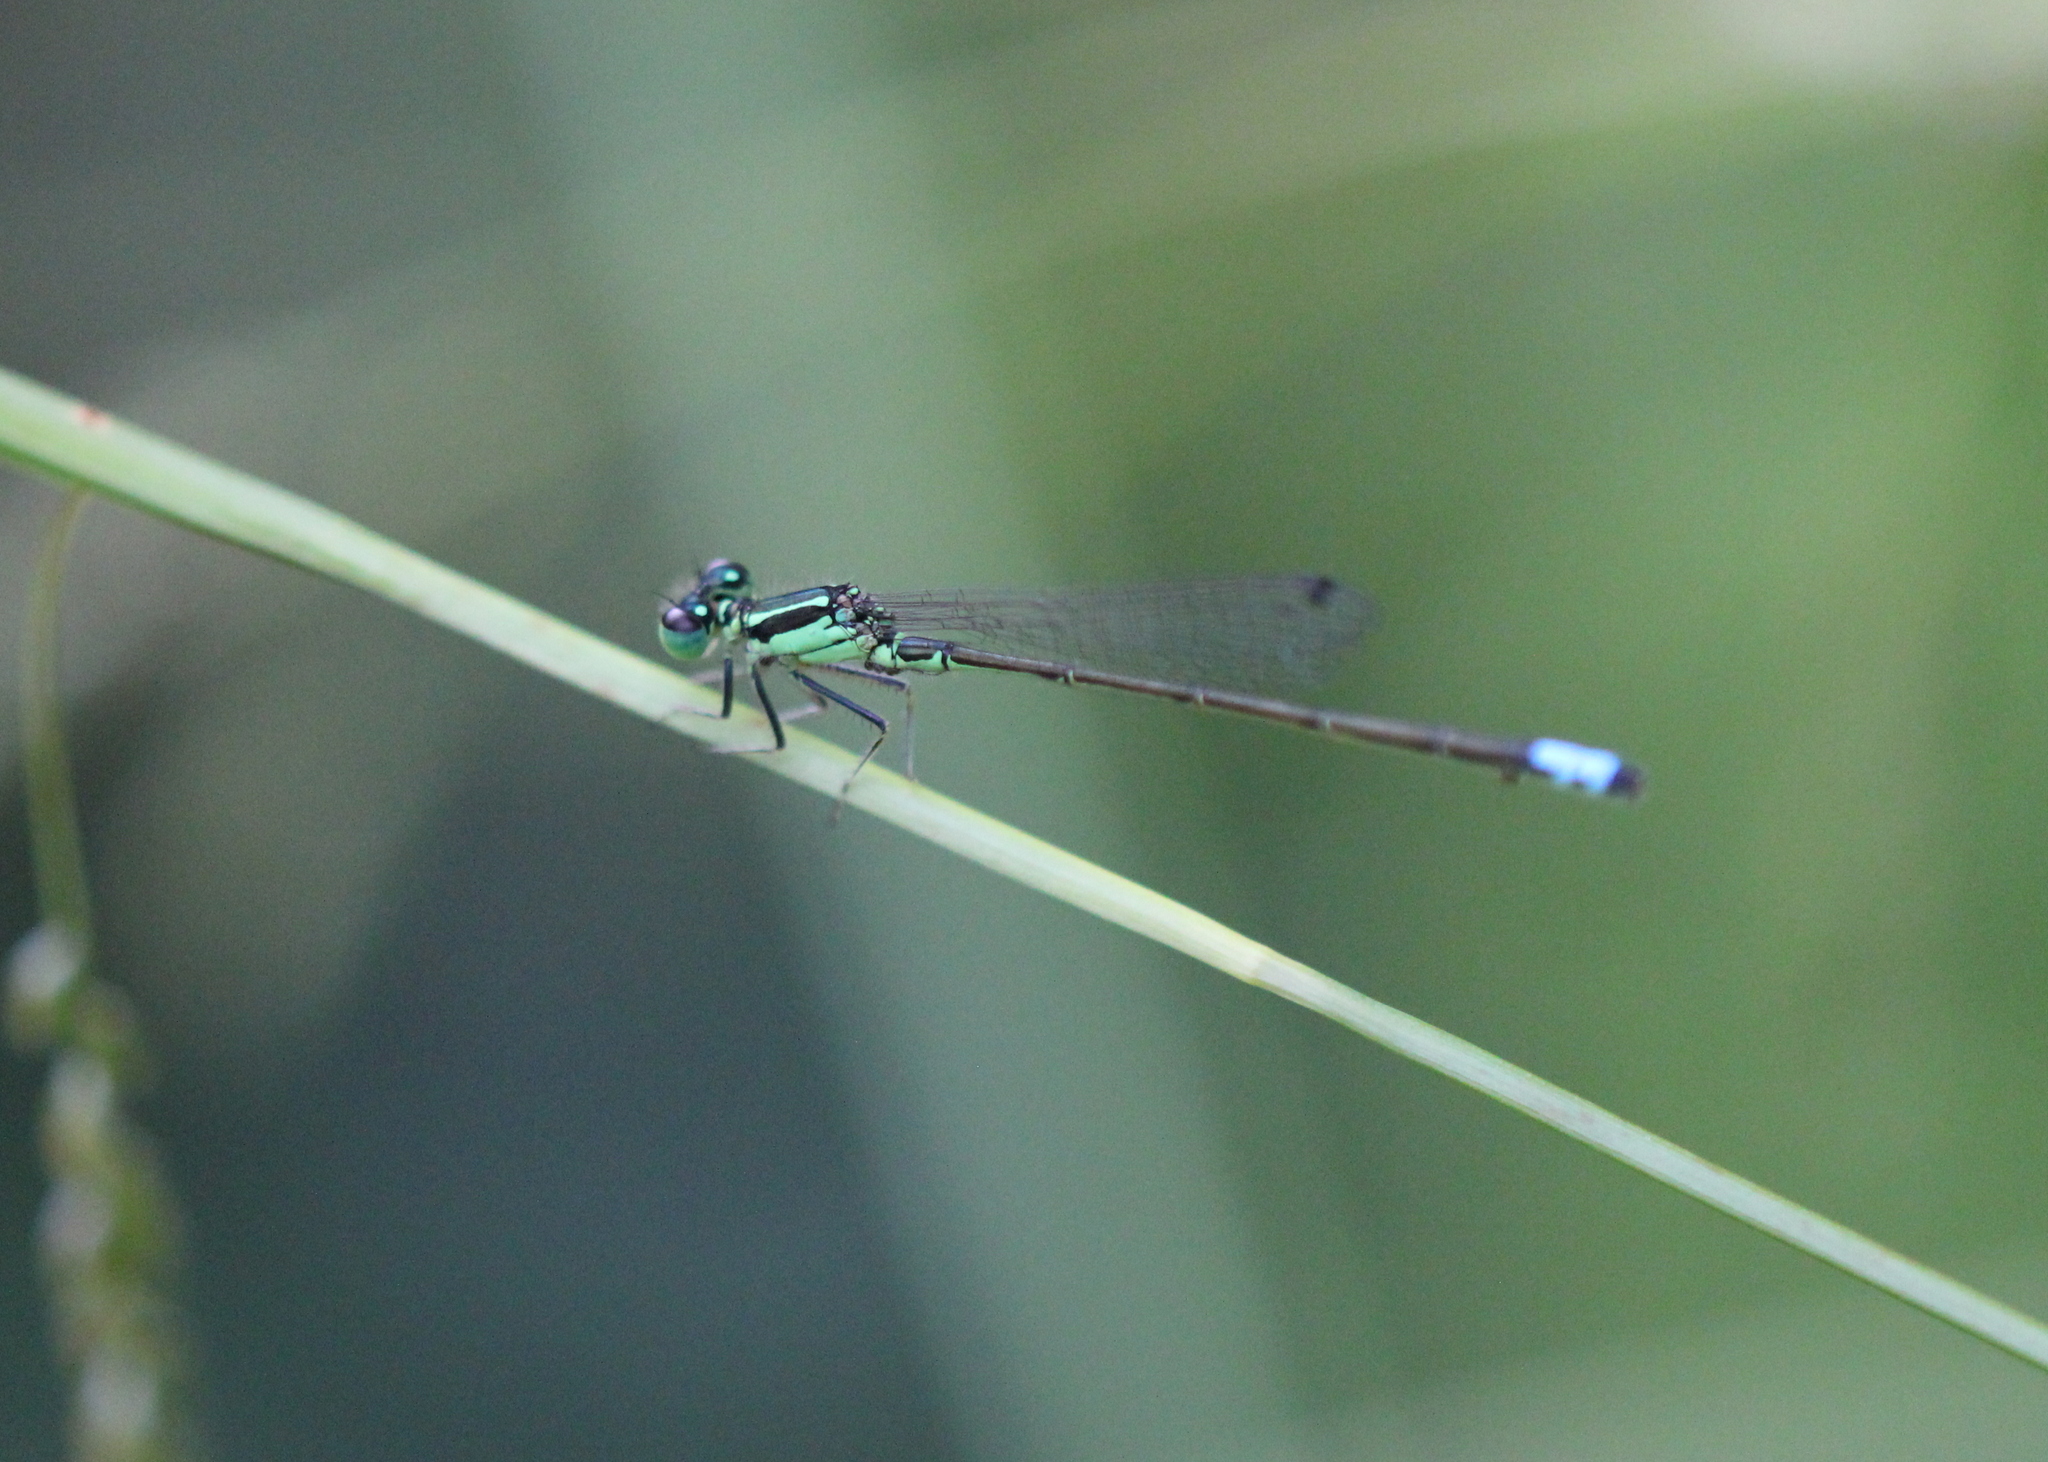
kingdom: Animalia
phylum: Arthropoda
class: Insecta
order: Odonata
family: Coenagrionidae
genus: Ischnura
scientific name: Ischnura verticalis
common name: Eastern forktail
